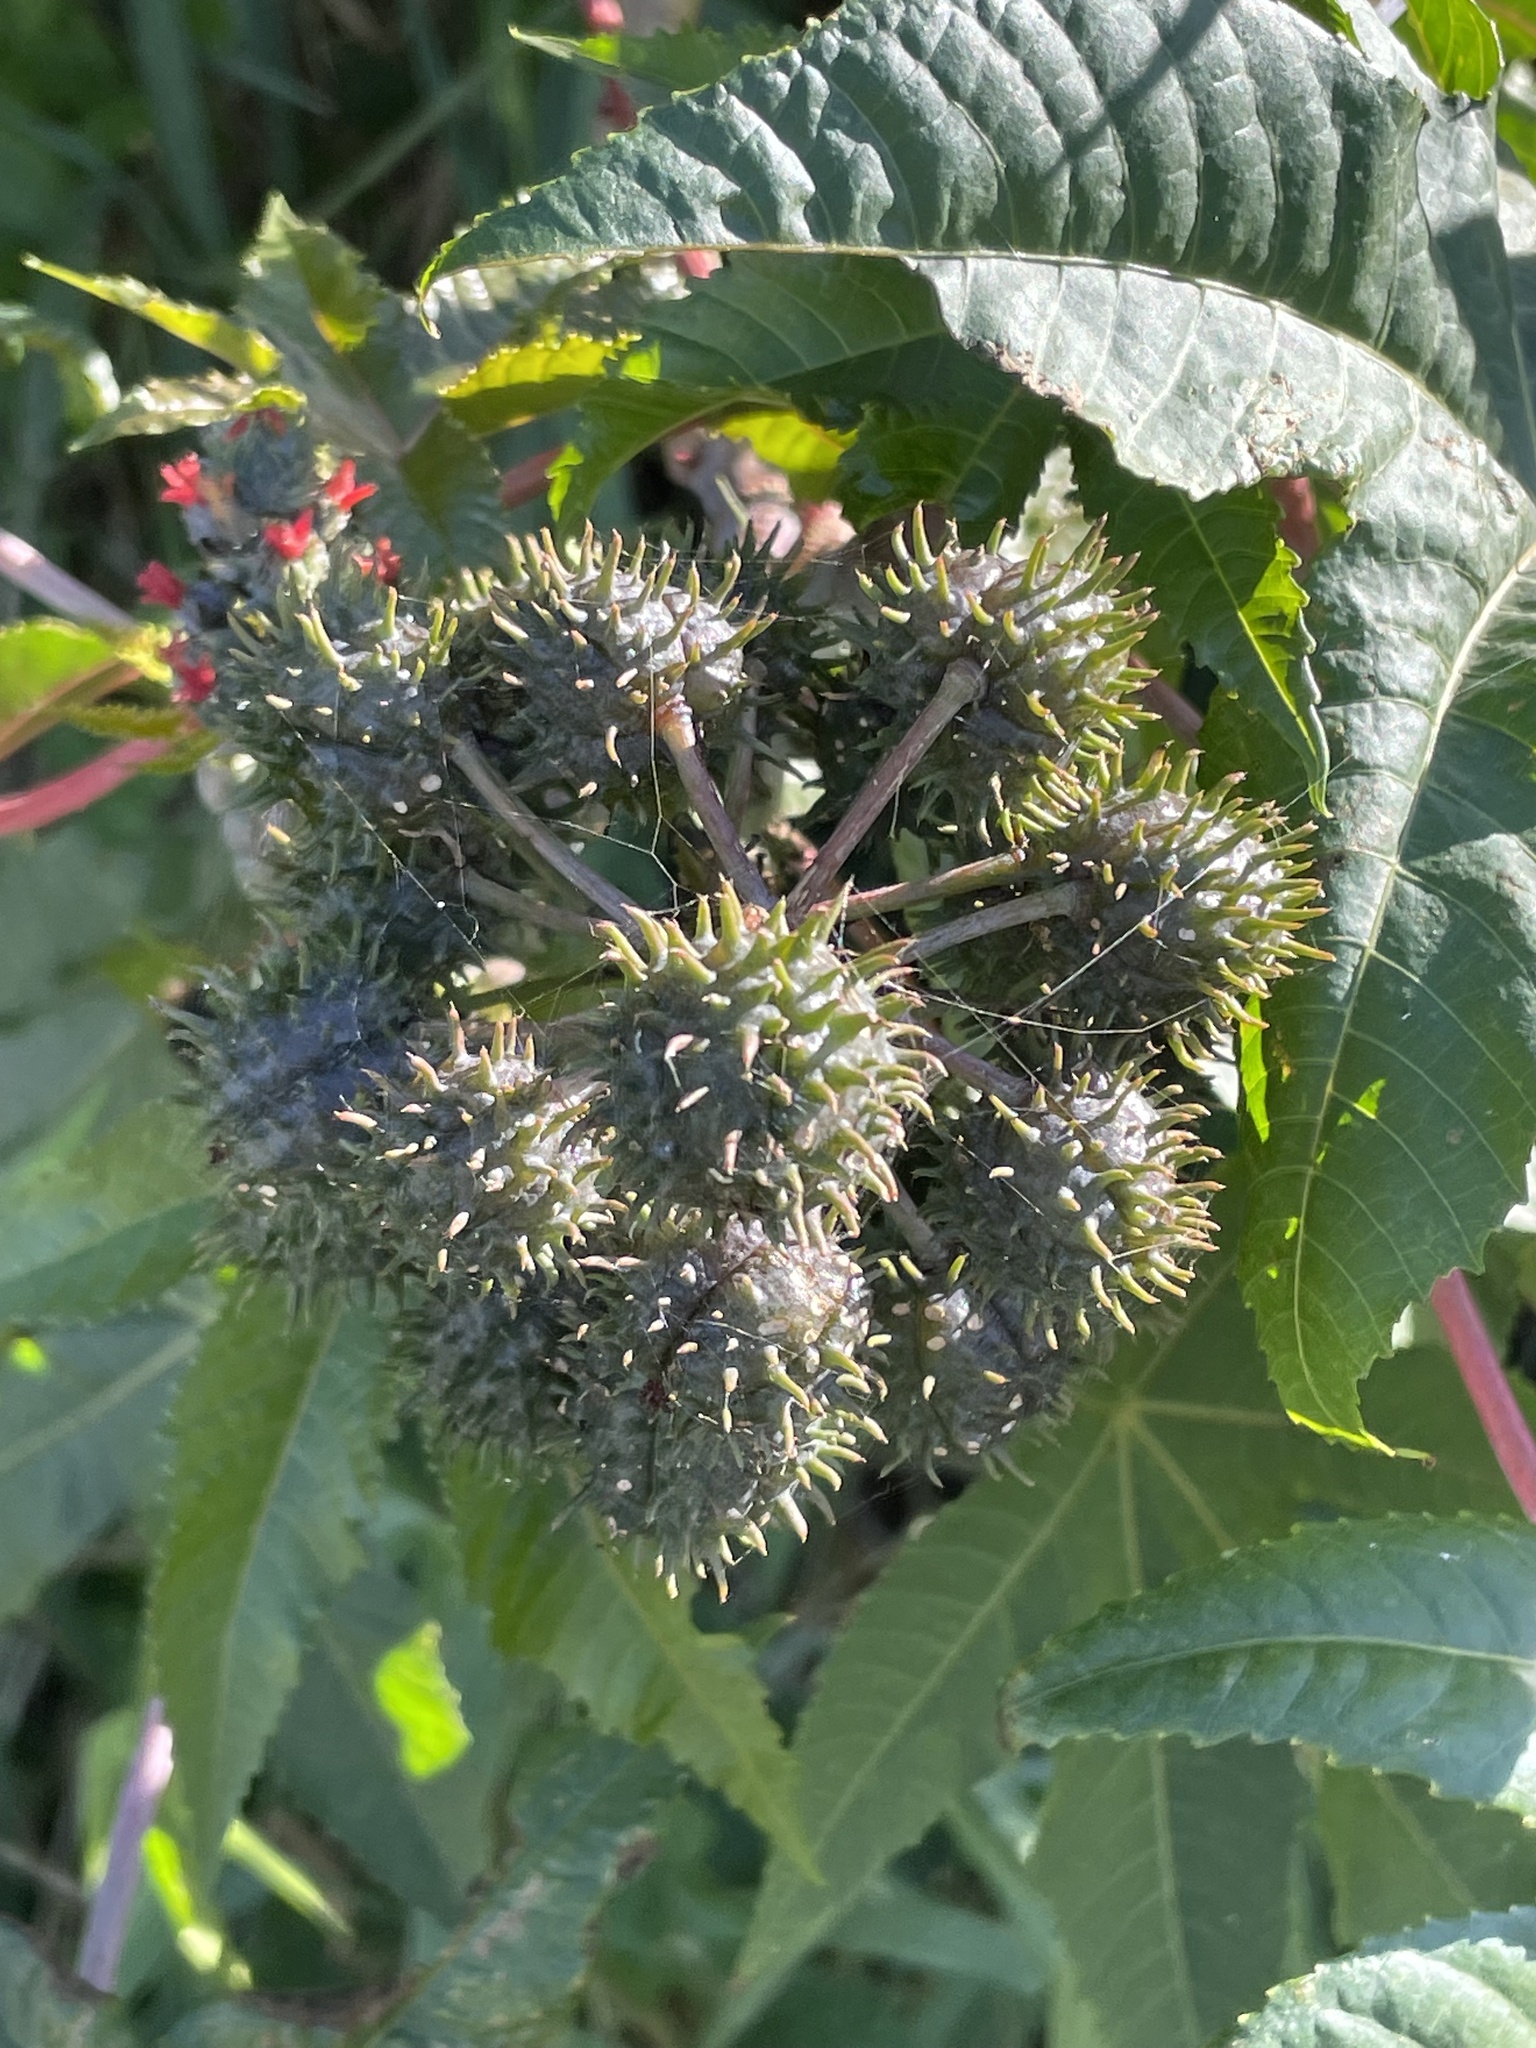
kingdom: Plantae
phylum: Tracheophyta
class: Magnoliopsida
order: Malpighiales
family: Euphorbiaceae
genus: Ricinus
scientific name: Ricinus communis
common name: Castor-oil-plant
